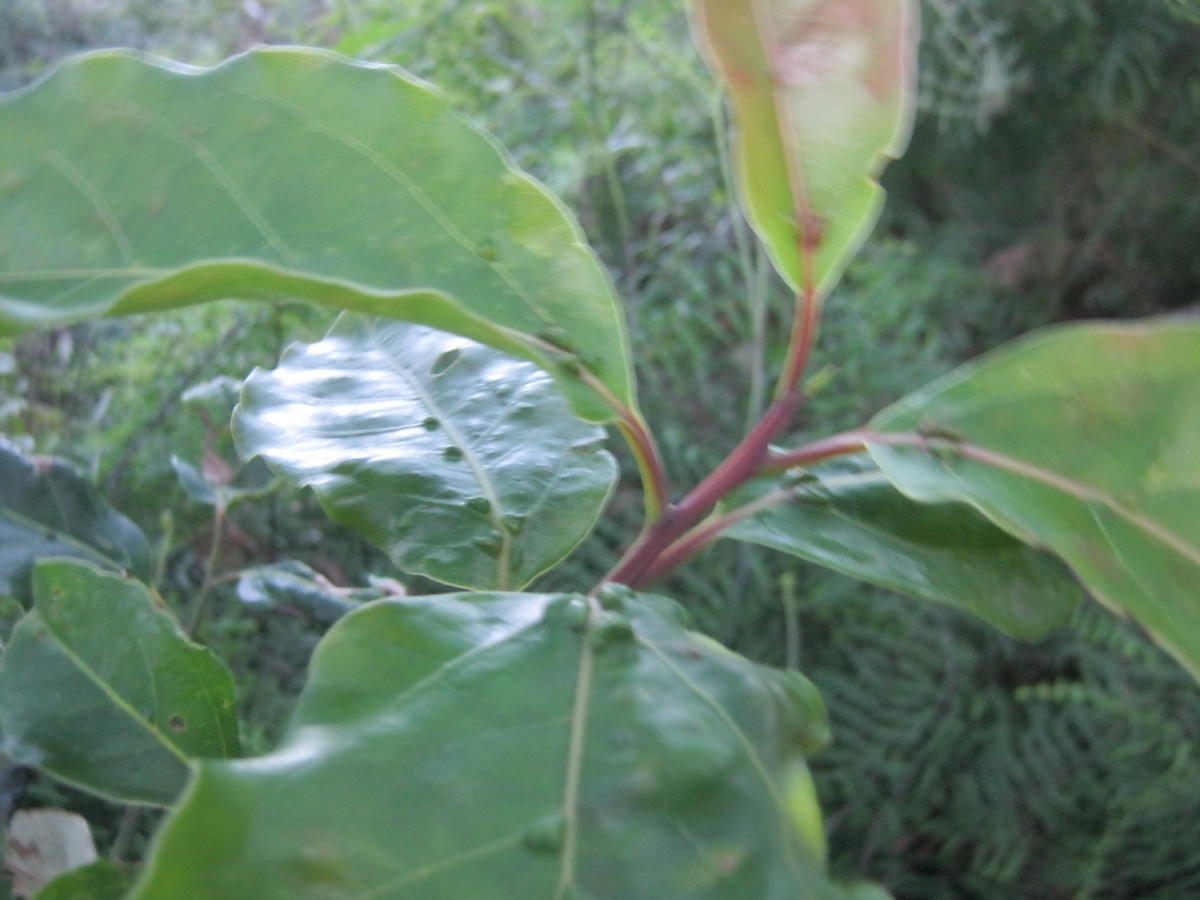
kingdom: Plantae
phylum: Tracheophyta
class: Magnoliopsida
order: Laurales
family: Lauraceae
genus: Ocotea
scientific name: Ocotea bullata
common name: Black stinkwood
